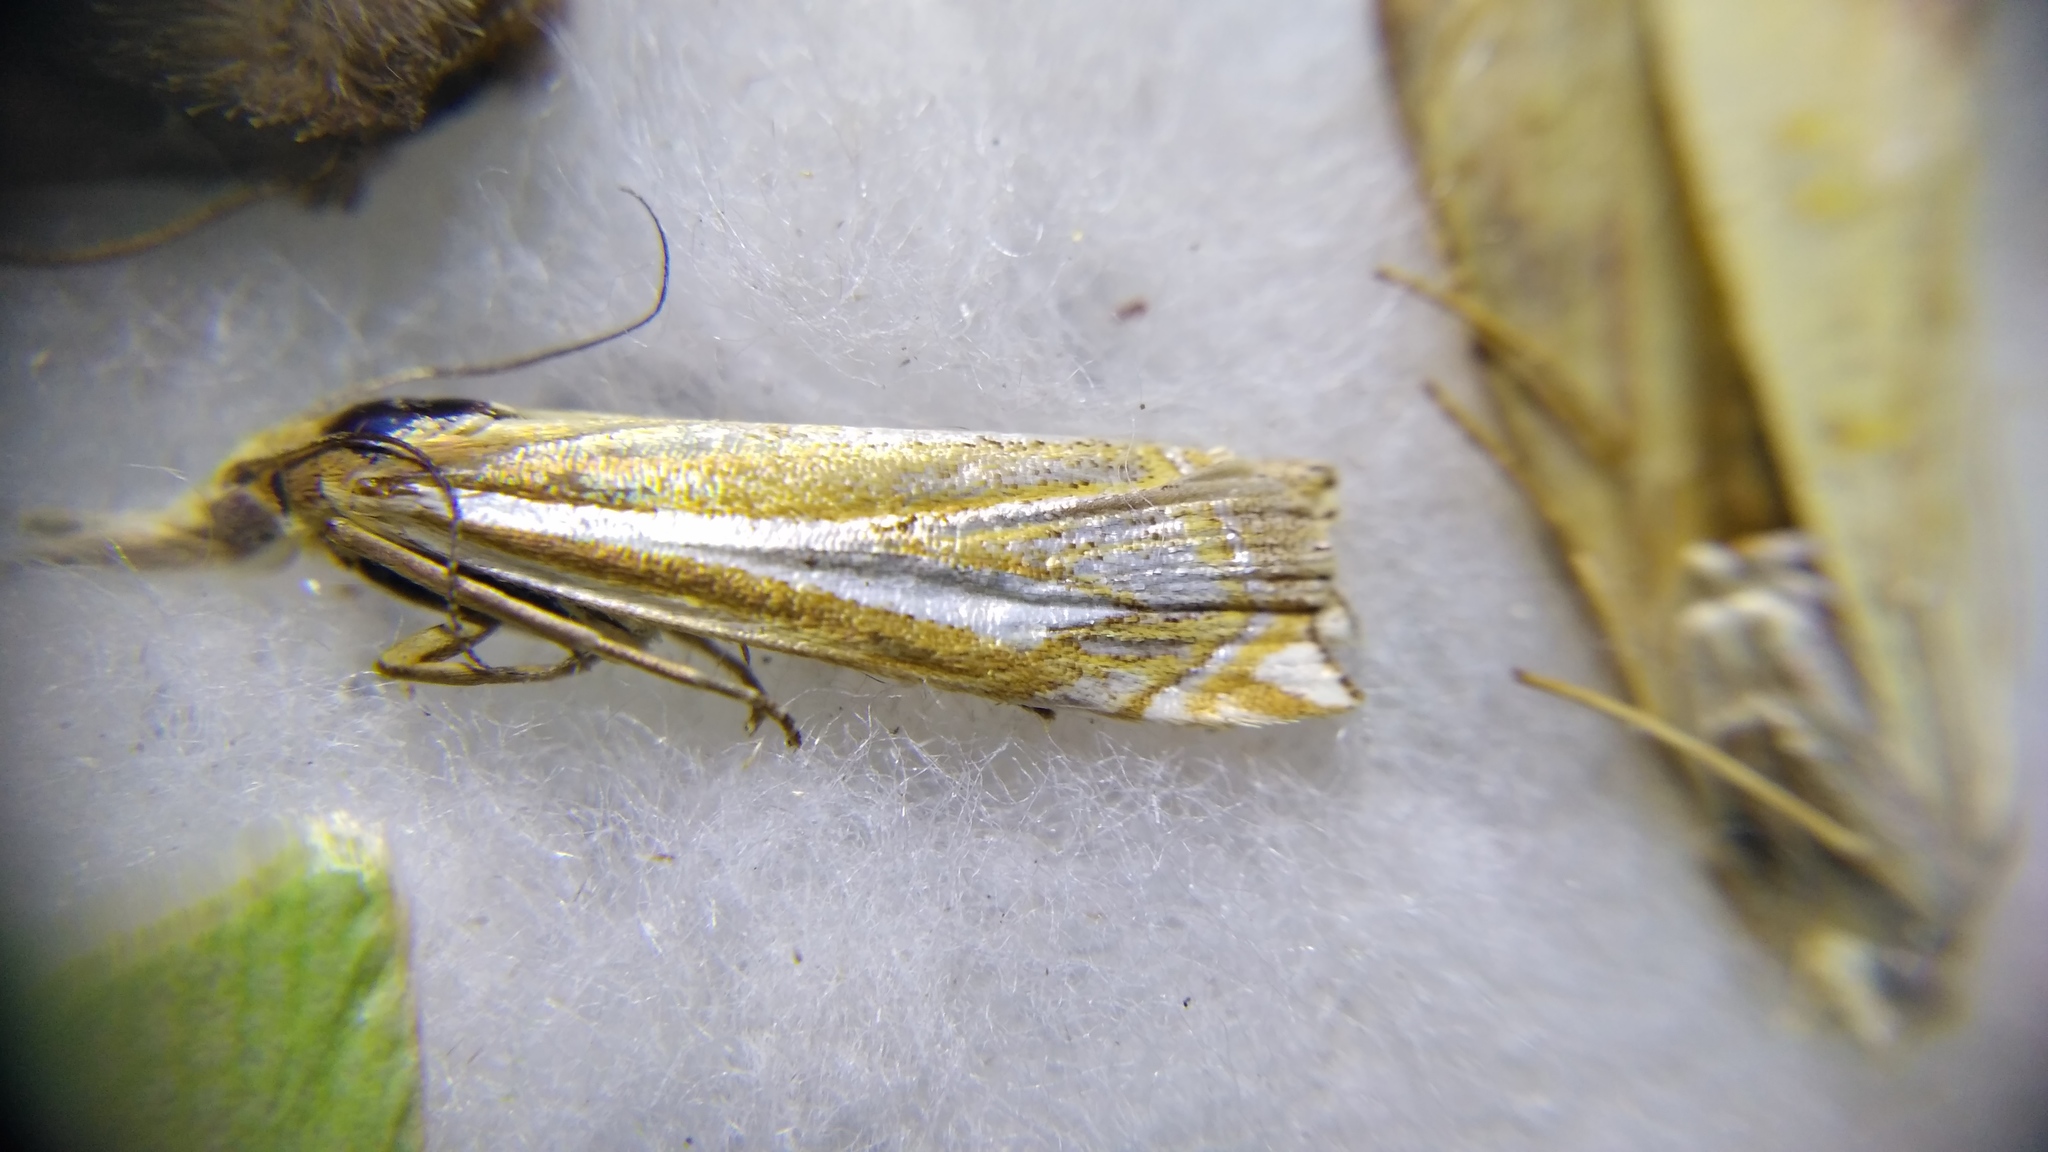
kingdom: Animalia
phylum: Arthropoda
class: Insecta
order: Lepidoptera
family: Crambidae
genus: Crambus
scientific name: Crambus pratella
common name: Scarce grass-veneer
